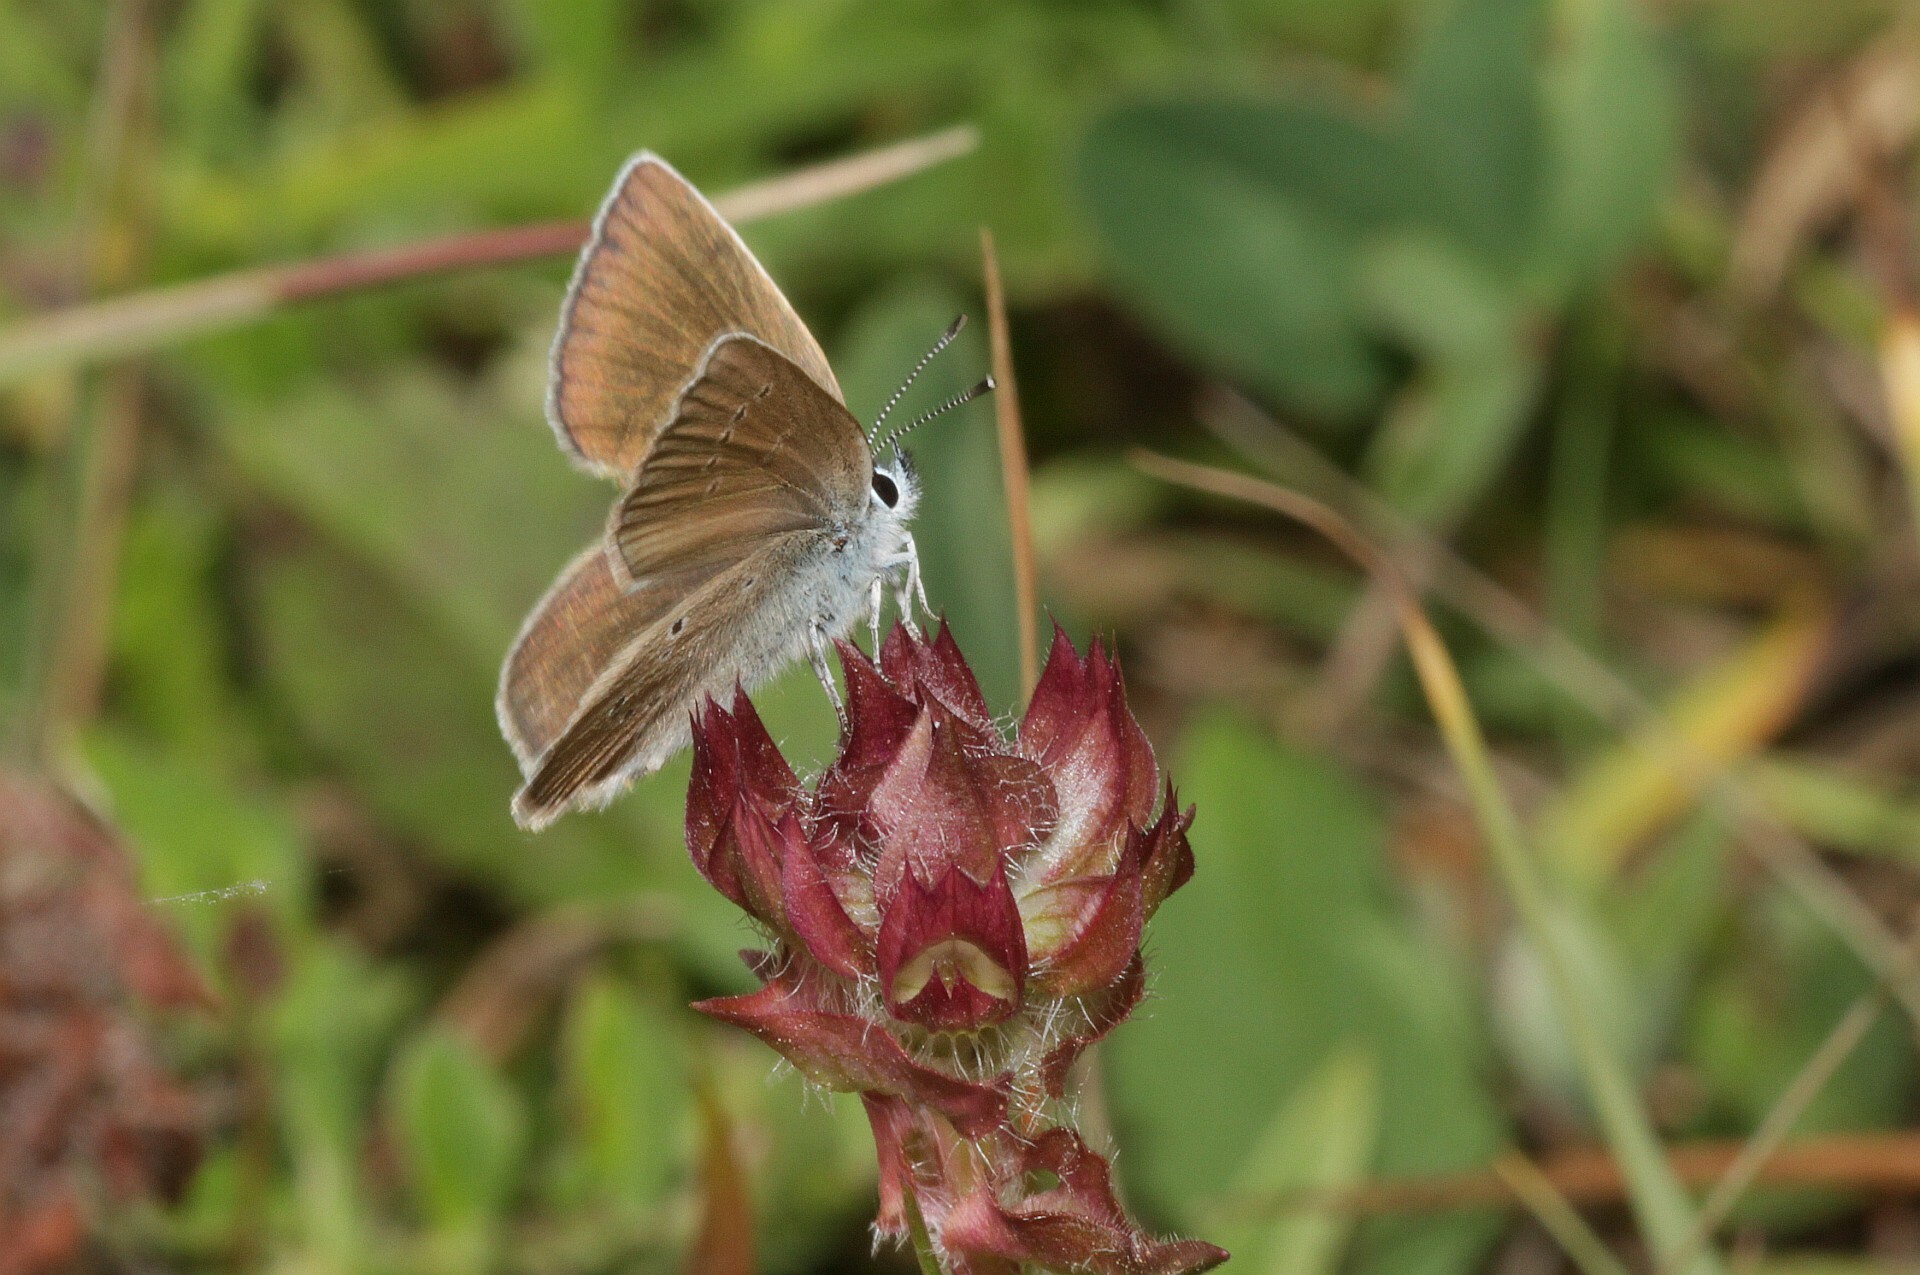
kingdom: Animalia
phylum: Arthropoda
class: Insecta
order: Lepidoptera
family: Lycaenidae
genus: Cyaniris
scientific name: Cyaniris semiargus
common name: Mazarine blue
